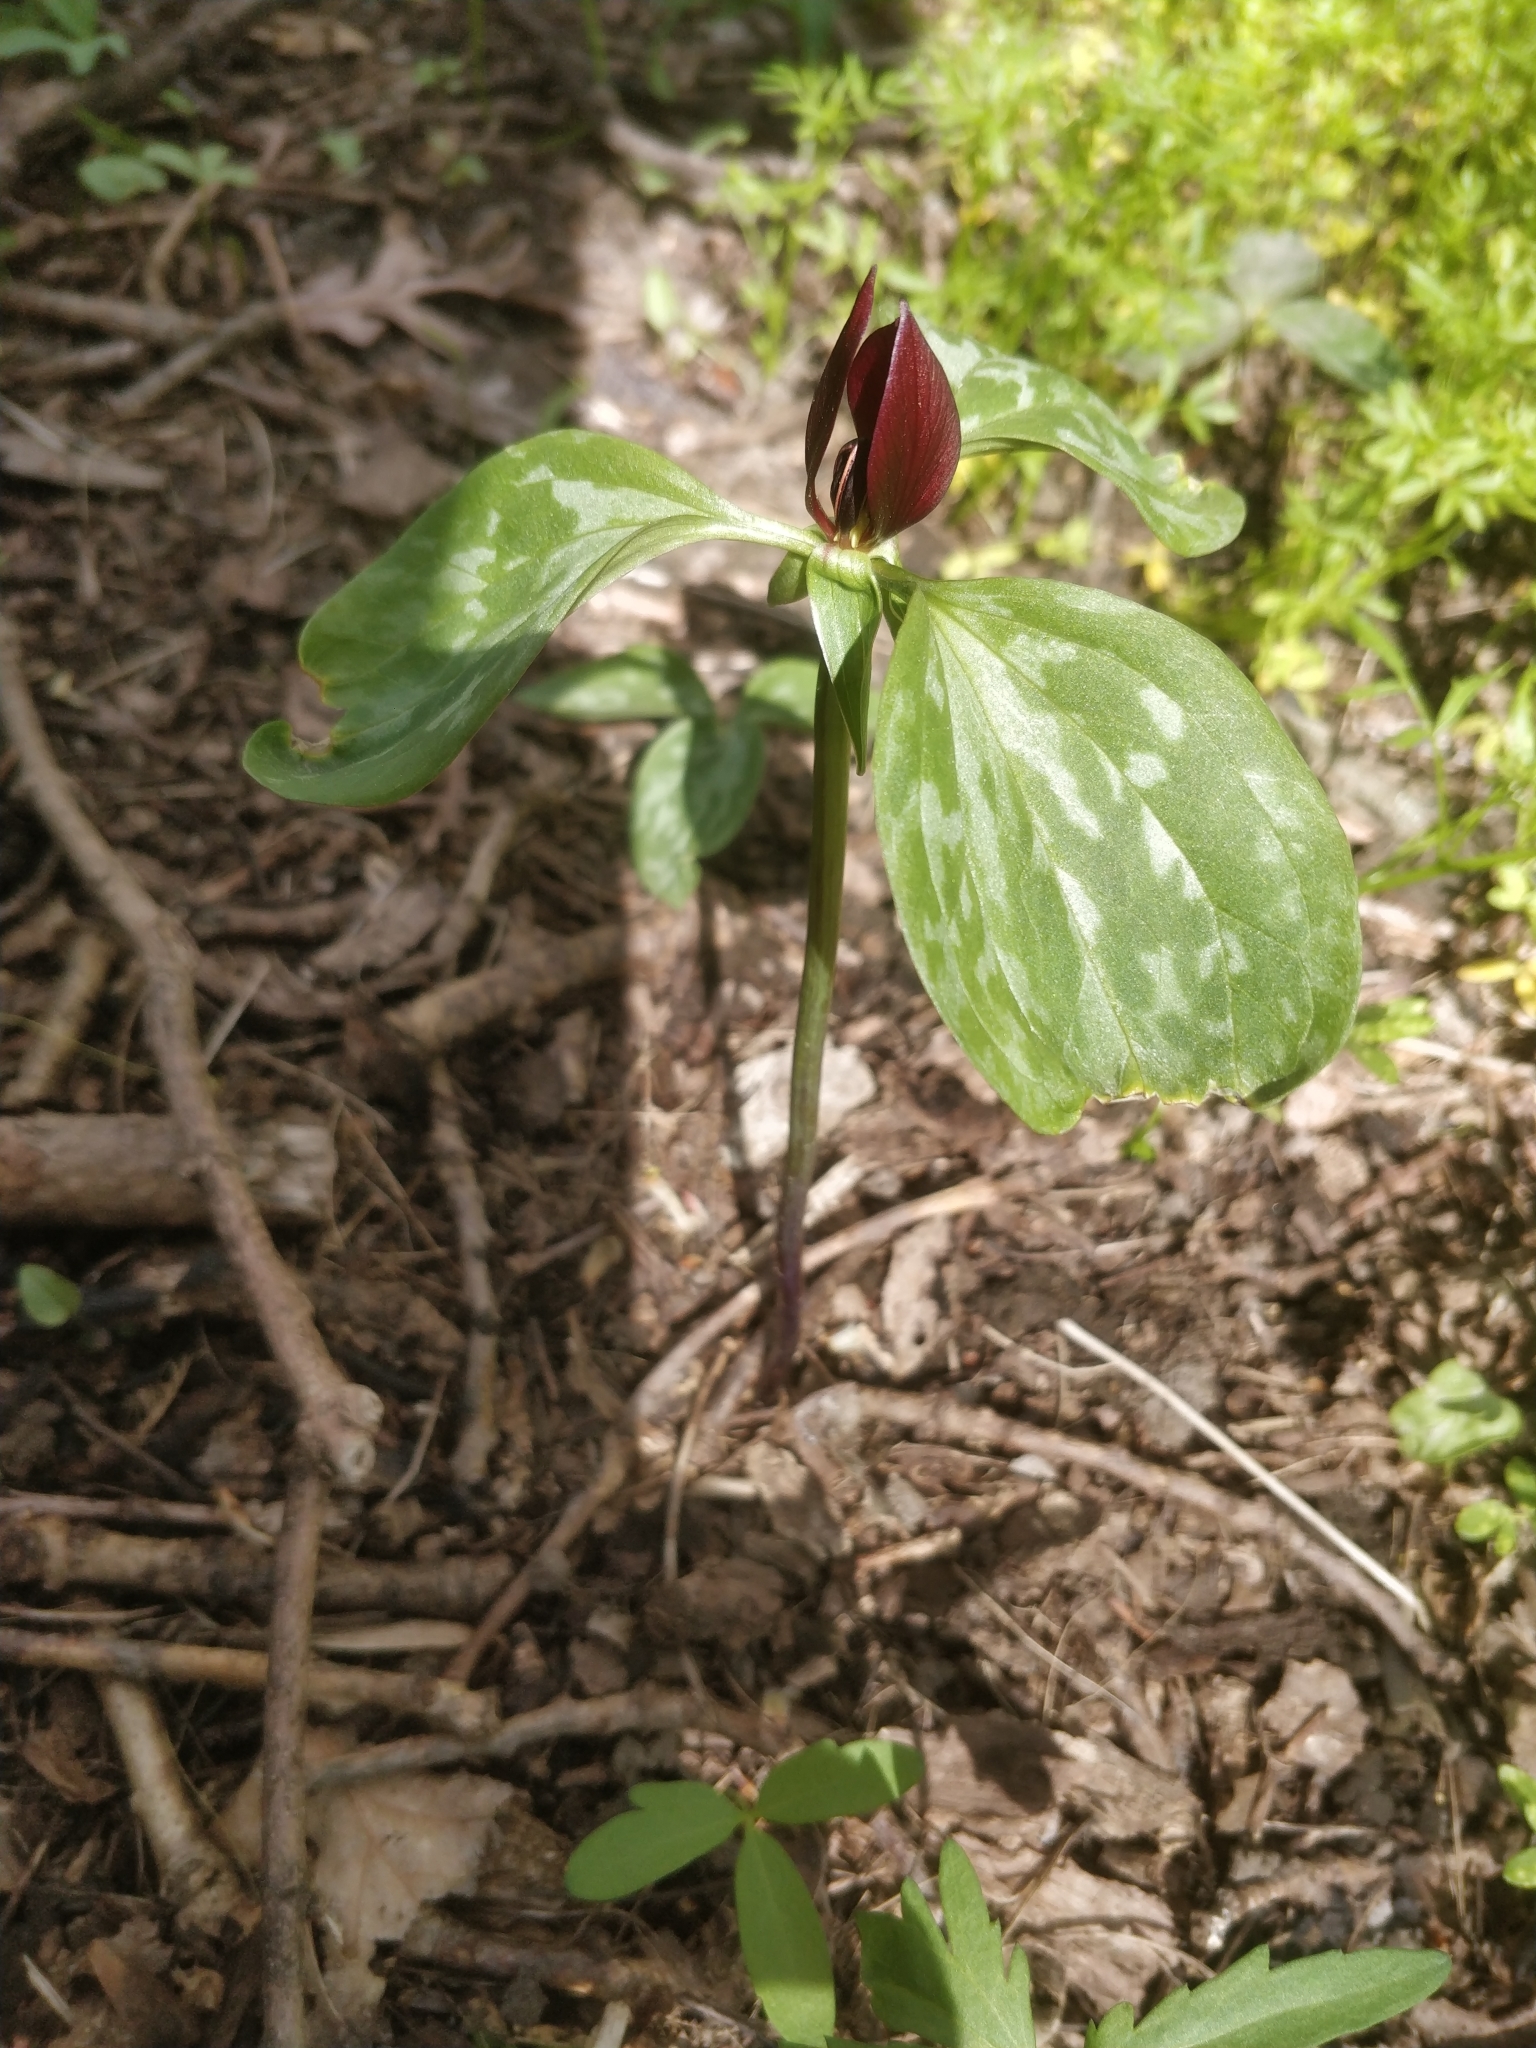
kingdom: Plantae
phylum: Tracheophyta
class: Liliopsida
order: Liliales
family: Melanthiaceae
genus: Trillium
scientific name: Trillium recurvatum
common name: Bloody butcher
